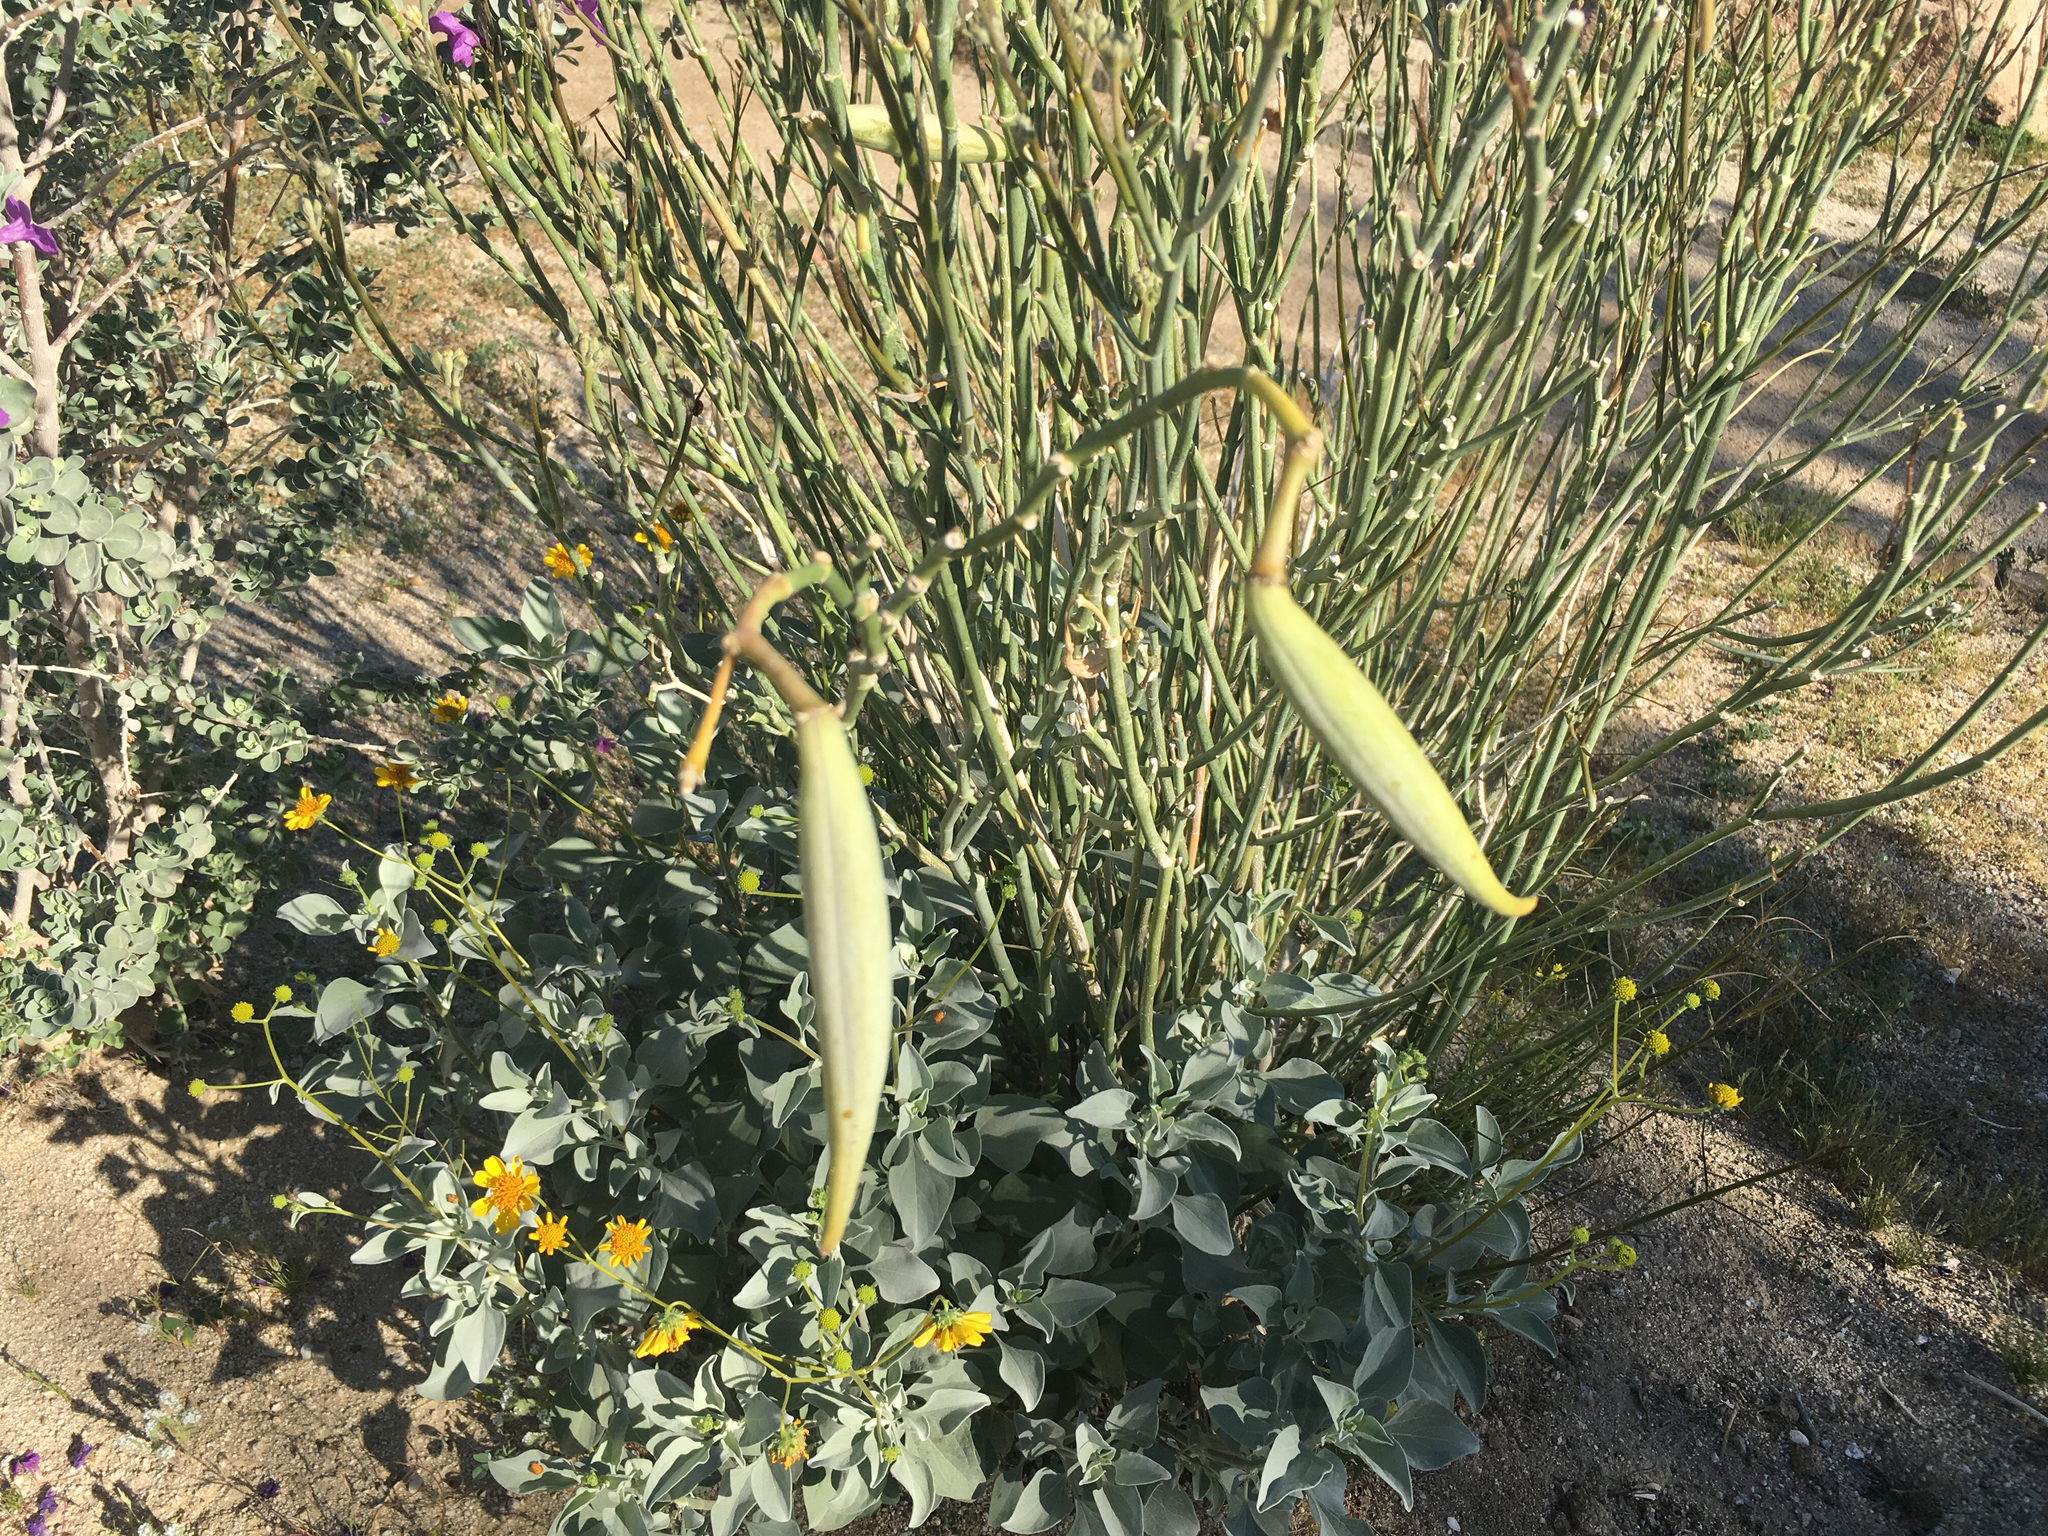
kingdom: Plantae
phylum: Tracheophyta
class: Magnoliopsida
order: Gentianales
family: Apocynaceae
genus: Asclepias
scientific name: Asclepias subulata
